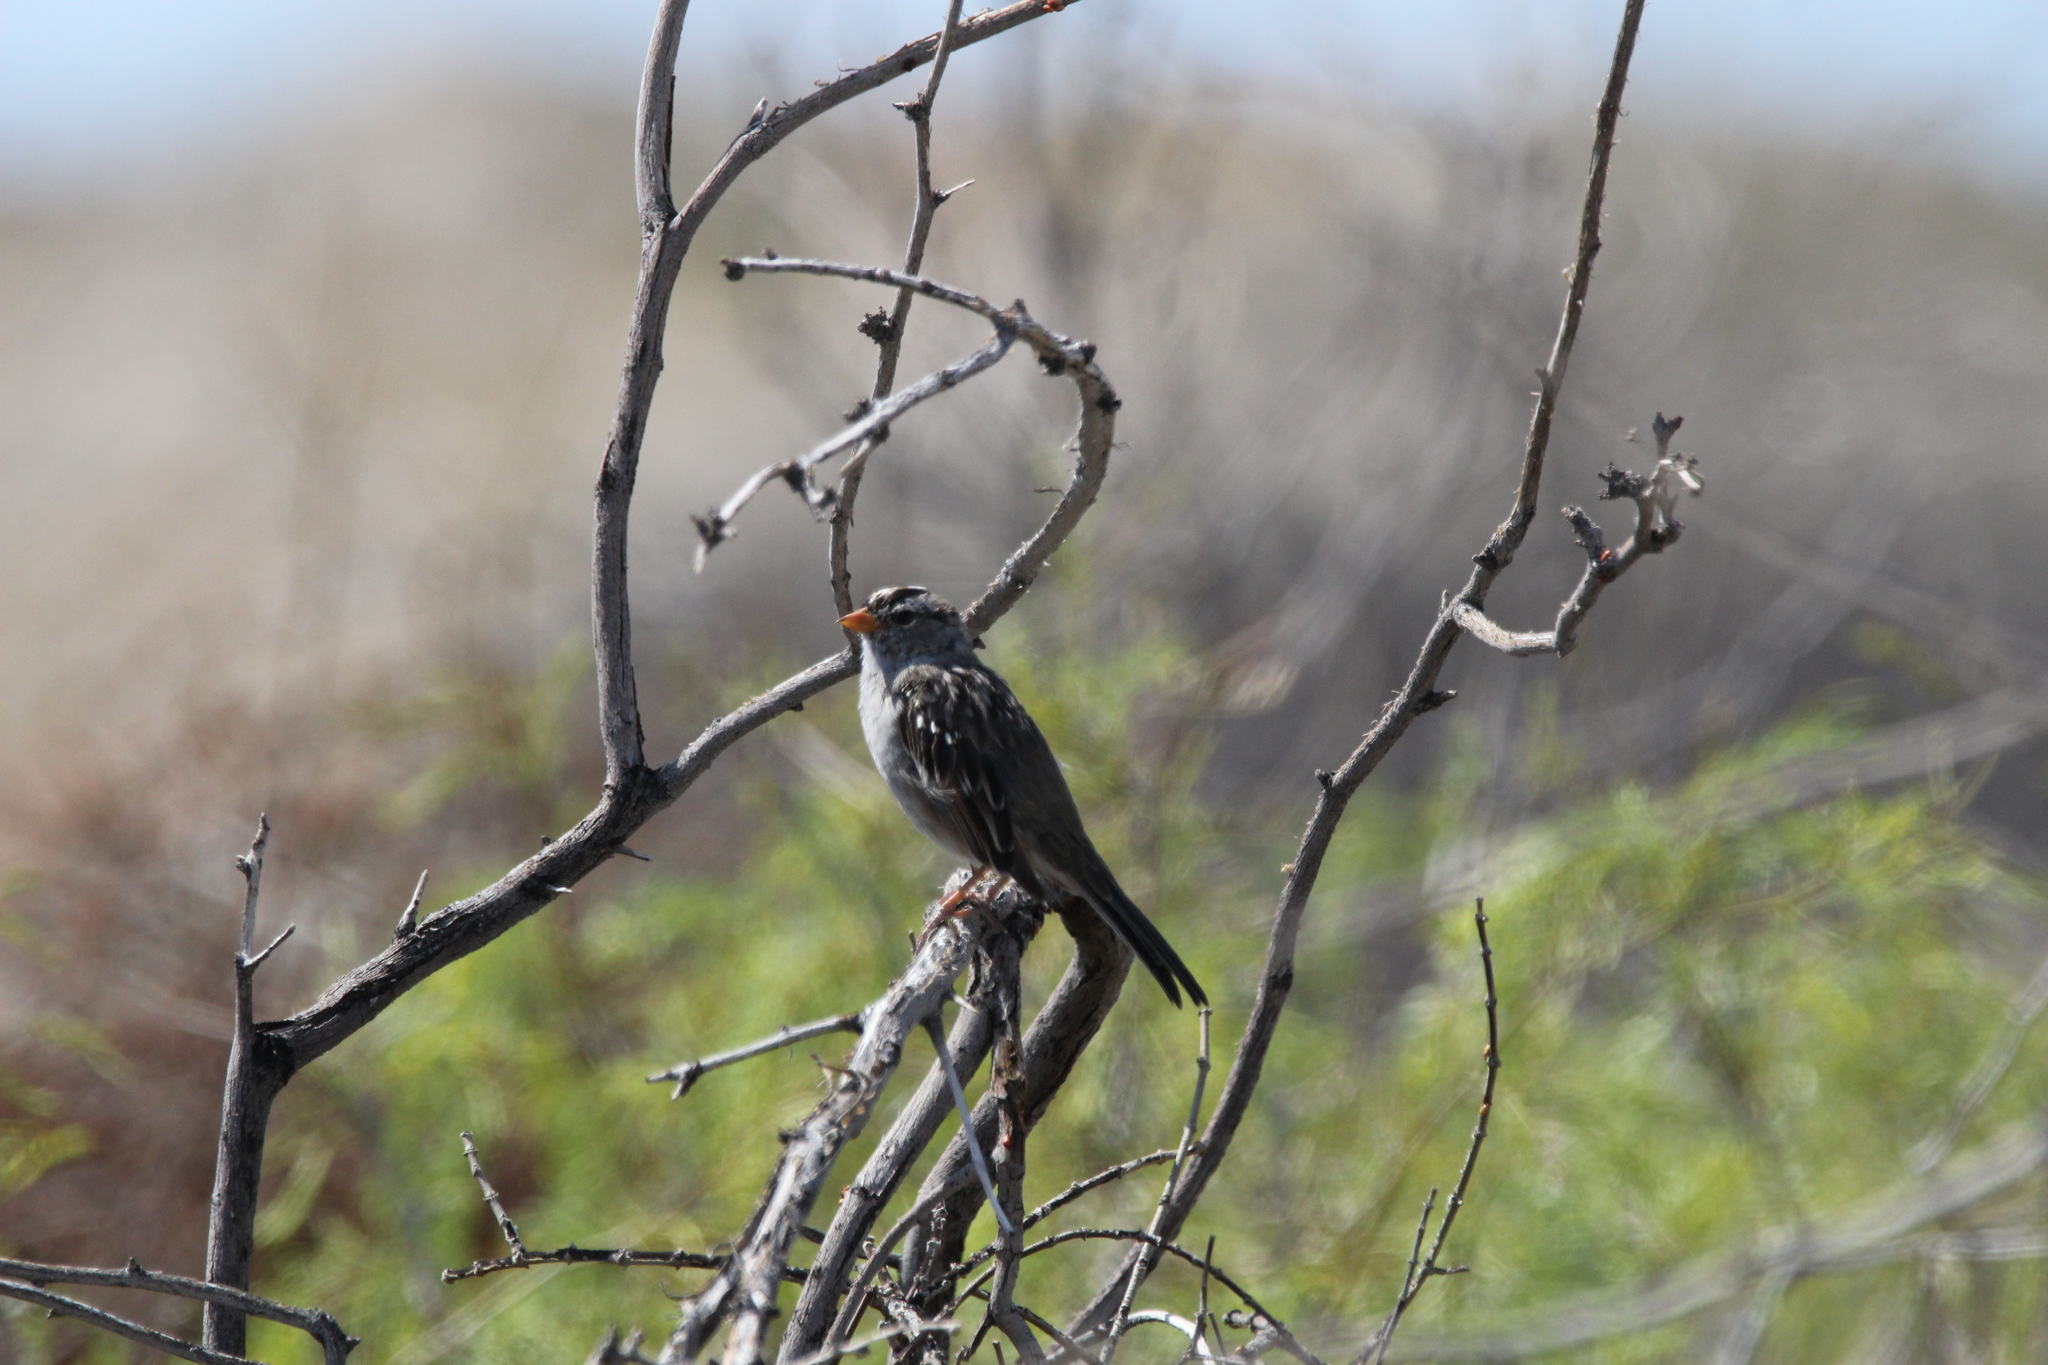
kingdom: Animalia
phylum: Chordata
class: Aves
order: Passeriformes
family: Passerellidae
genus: Zonotrichia
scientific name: Zonotrichia leucophrys
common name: White-crowned sparrow
